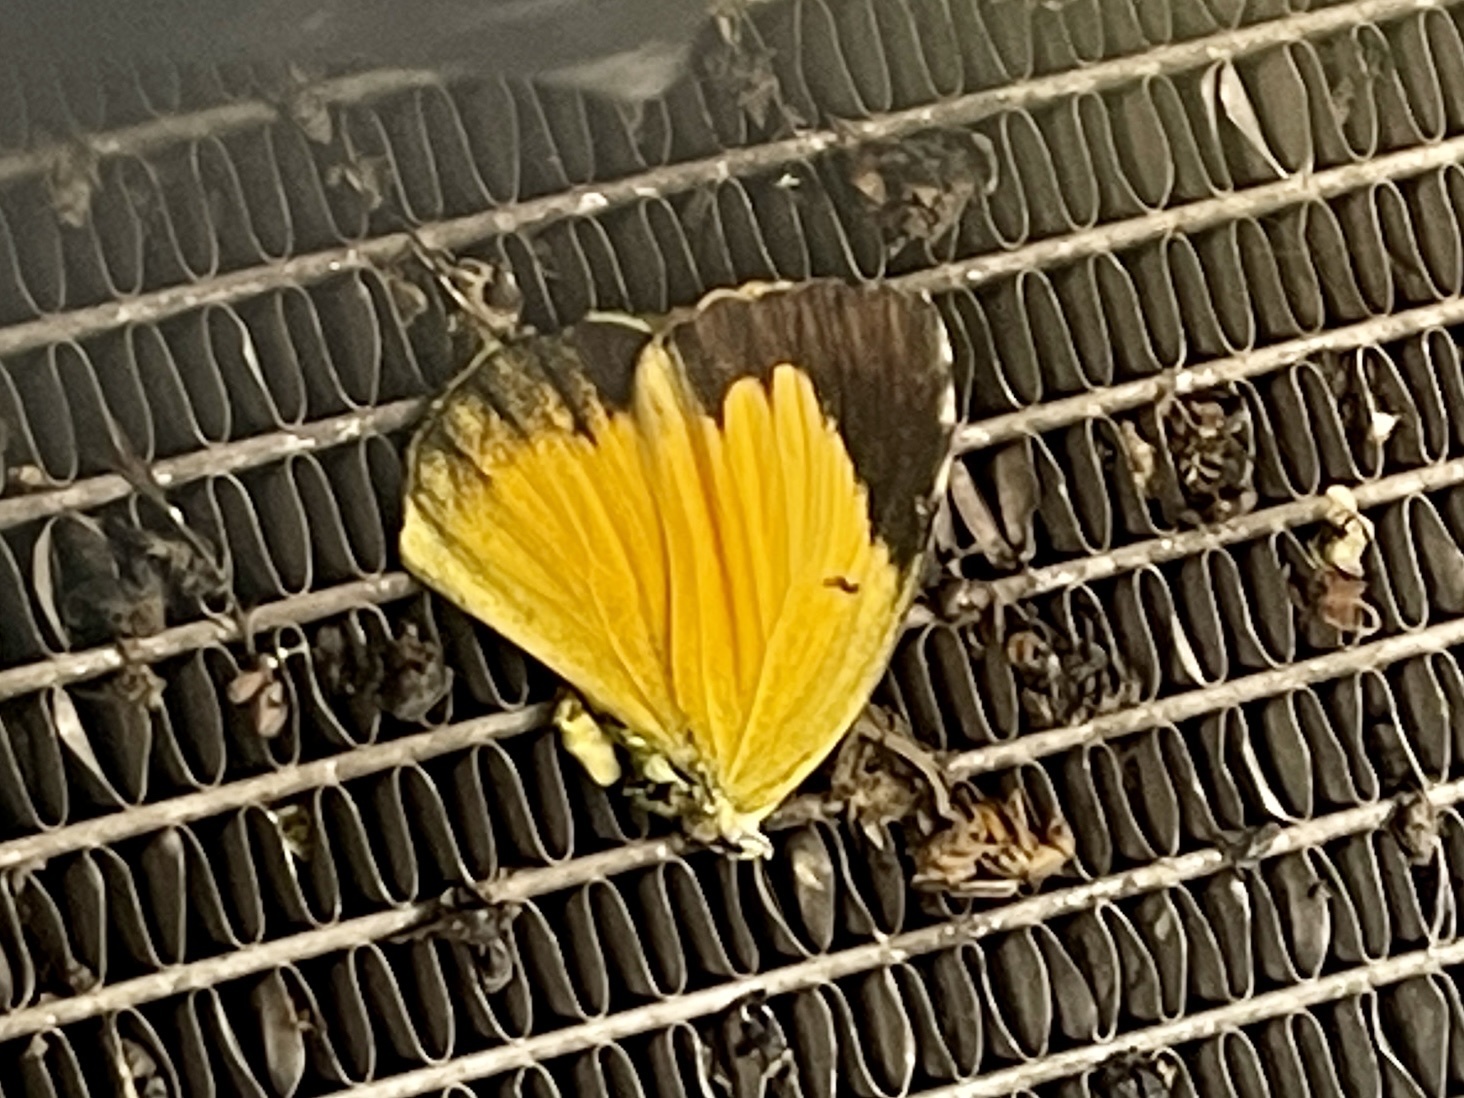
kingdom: Animalia
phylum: Arthropoda
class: Insecta
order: Lepidoptera
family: Pieridae
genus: Abaeis
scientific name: Abaeis nicippe
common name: Sleepy orange
